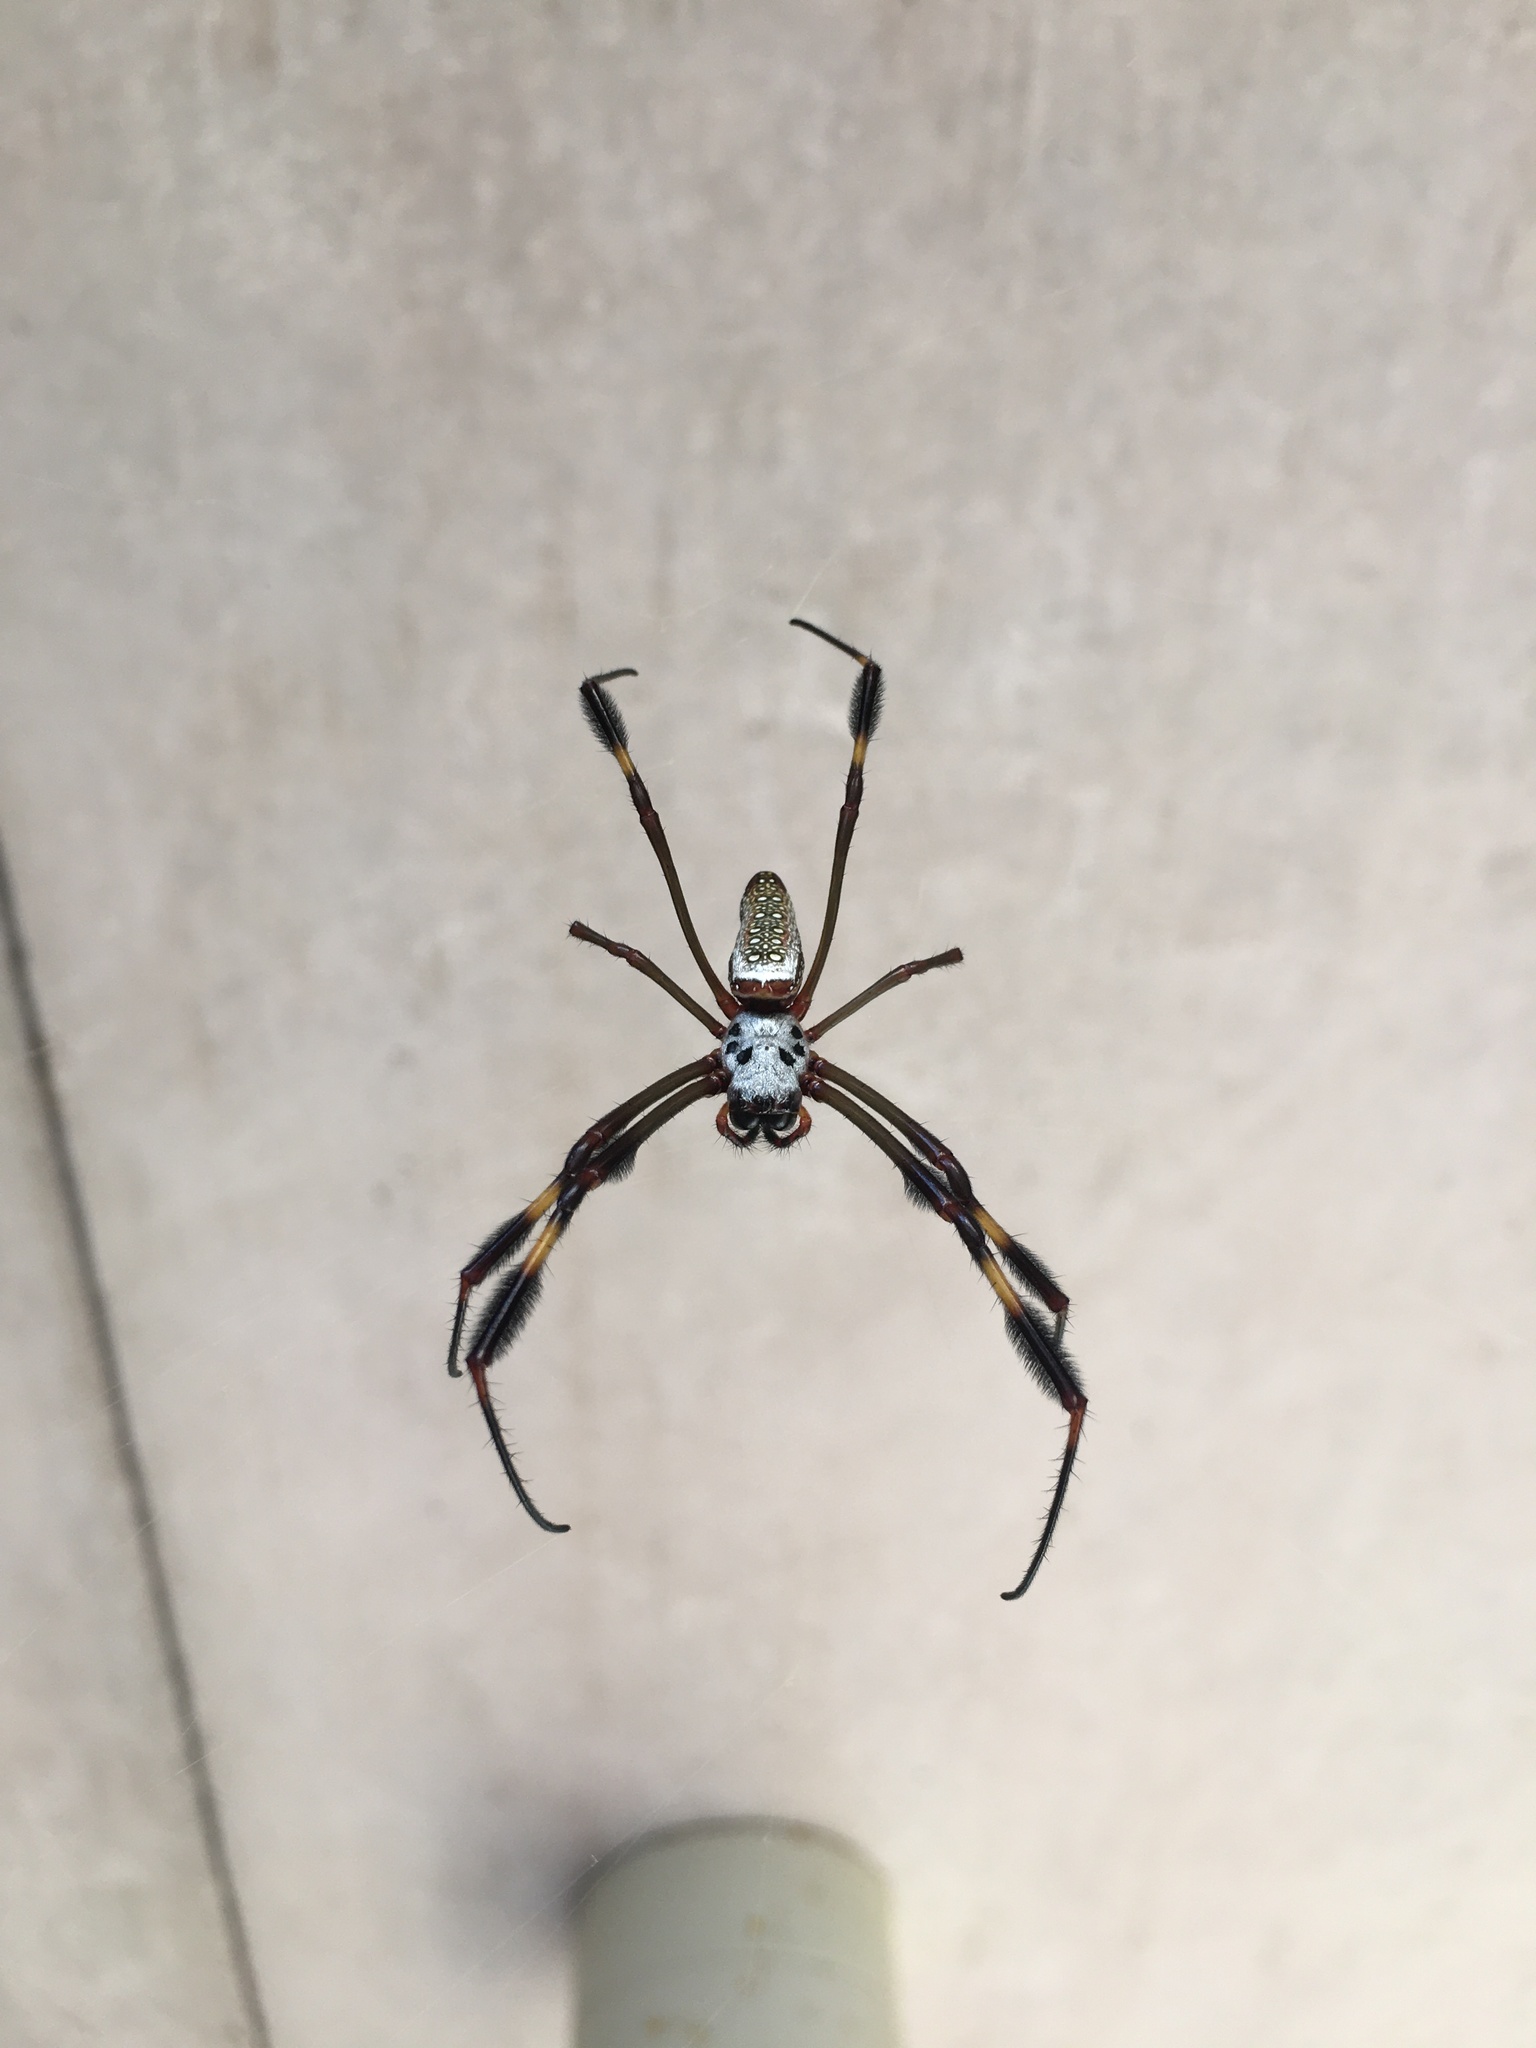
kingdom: Animalia
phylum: Arthropoda
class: Arachnida
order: Araneae
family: Araneidae
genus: Trichonephila
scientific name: Trichonephila clavipes
